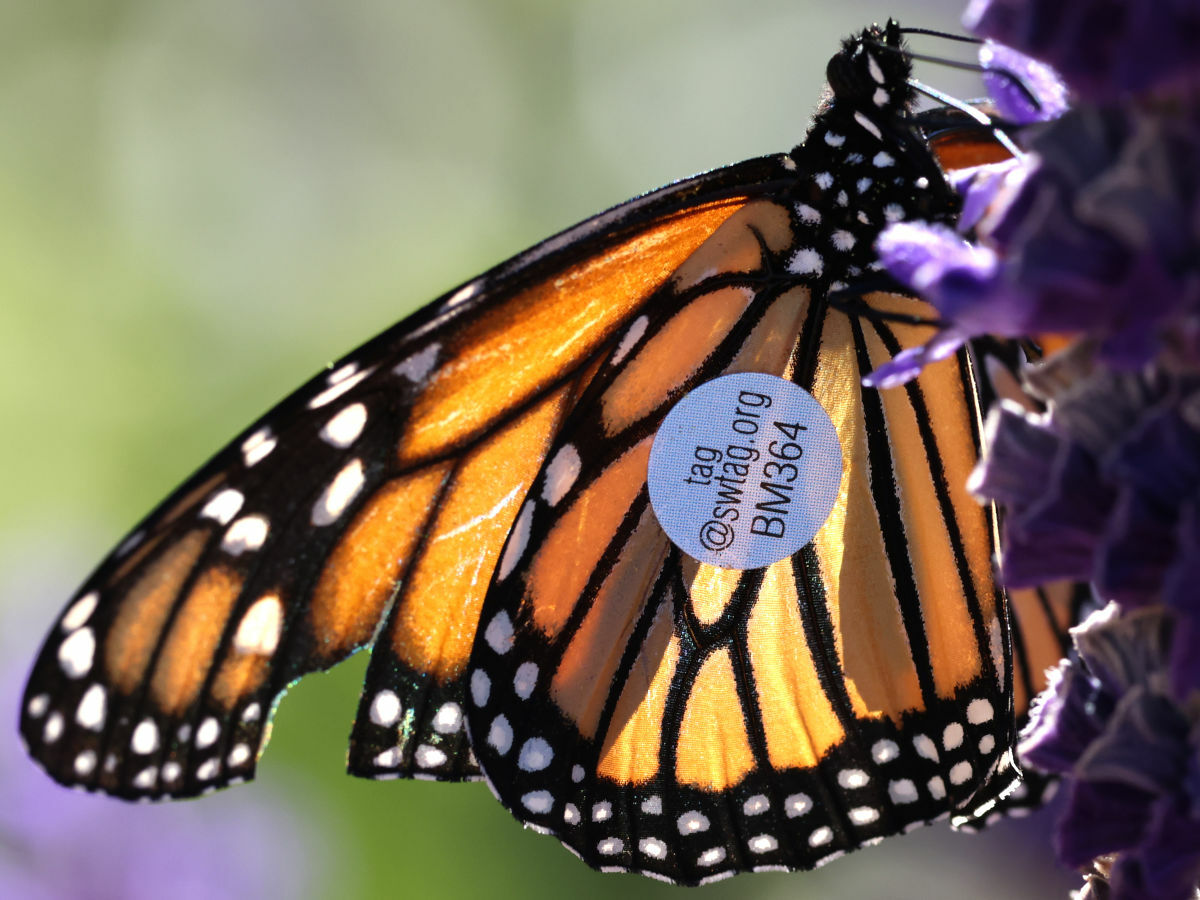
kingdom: Animalia
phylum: Arthropoda
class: Insecta
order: Lepidoptera
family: Nymphalidae
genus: Danaus
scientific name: Danaus plexippus
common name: Monarch
